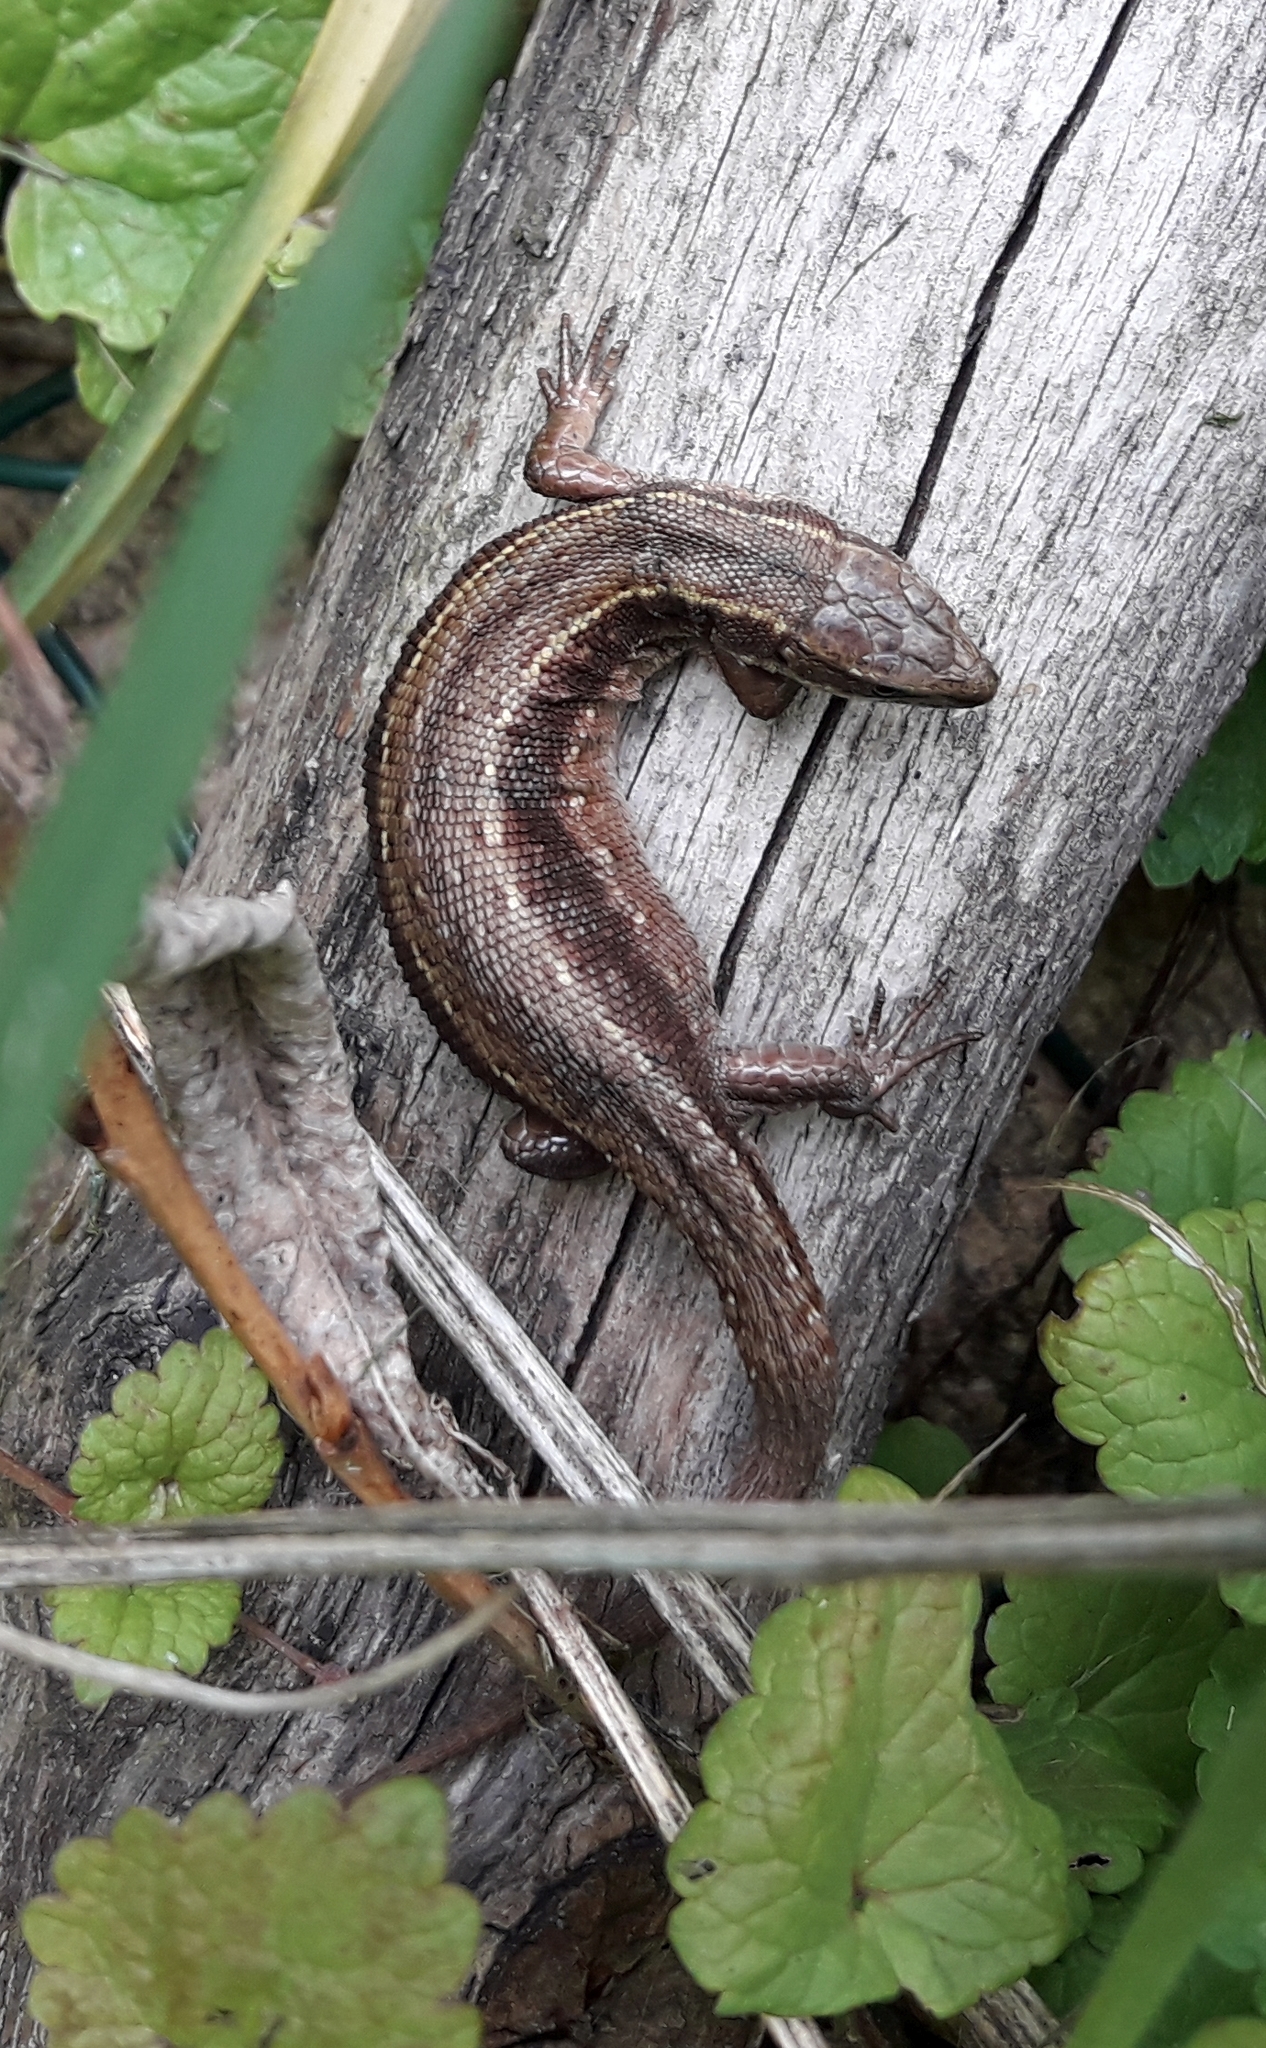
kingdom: Animalia
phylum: Chordata
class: Squamata
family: Lacertidae
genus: Zootoca
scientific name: Zootoca vivipara
